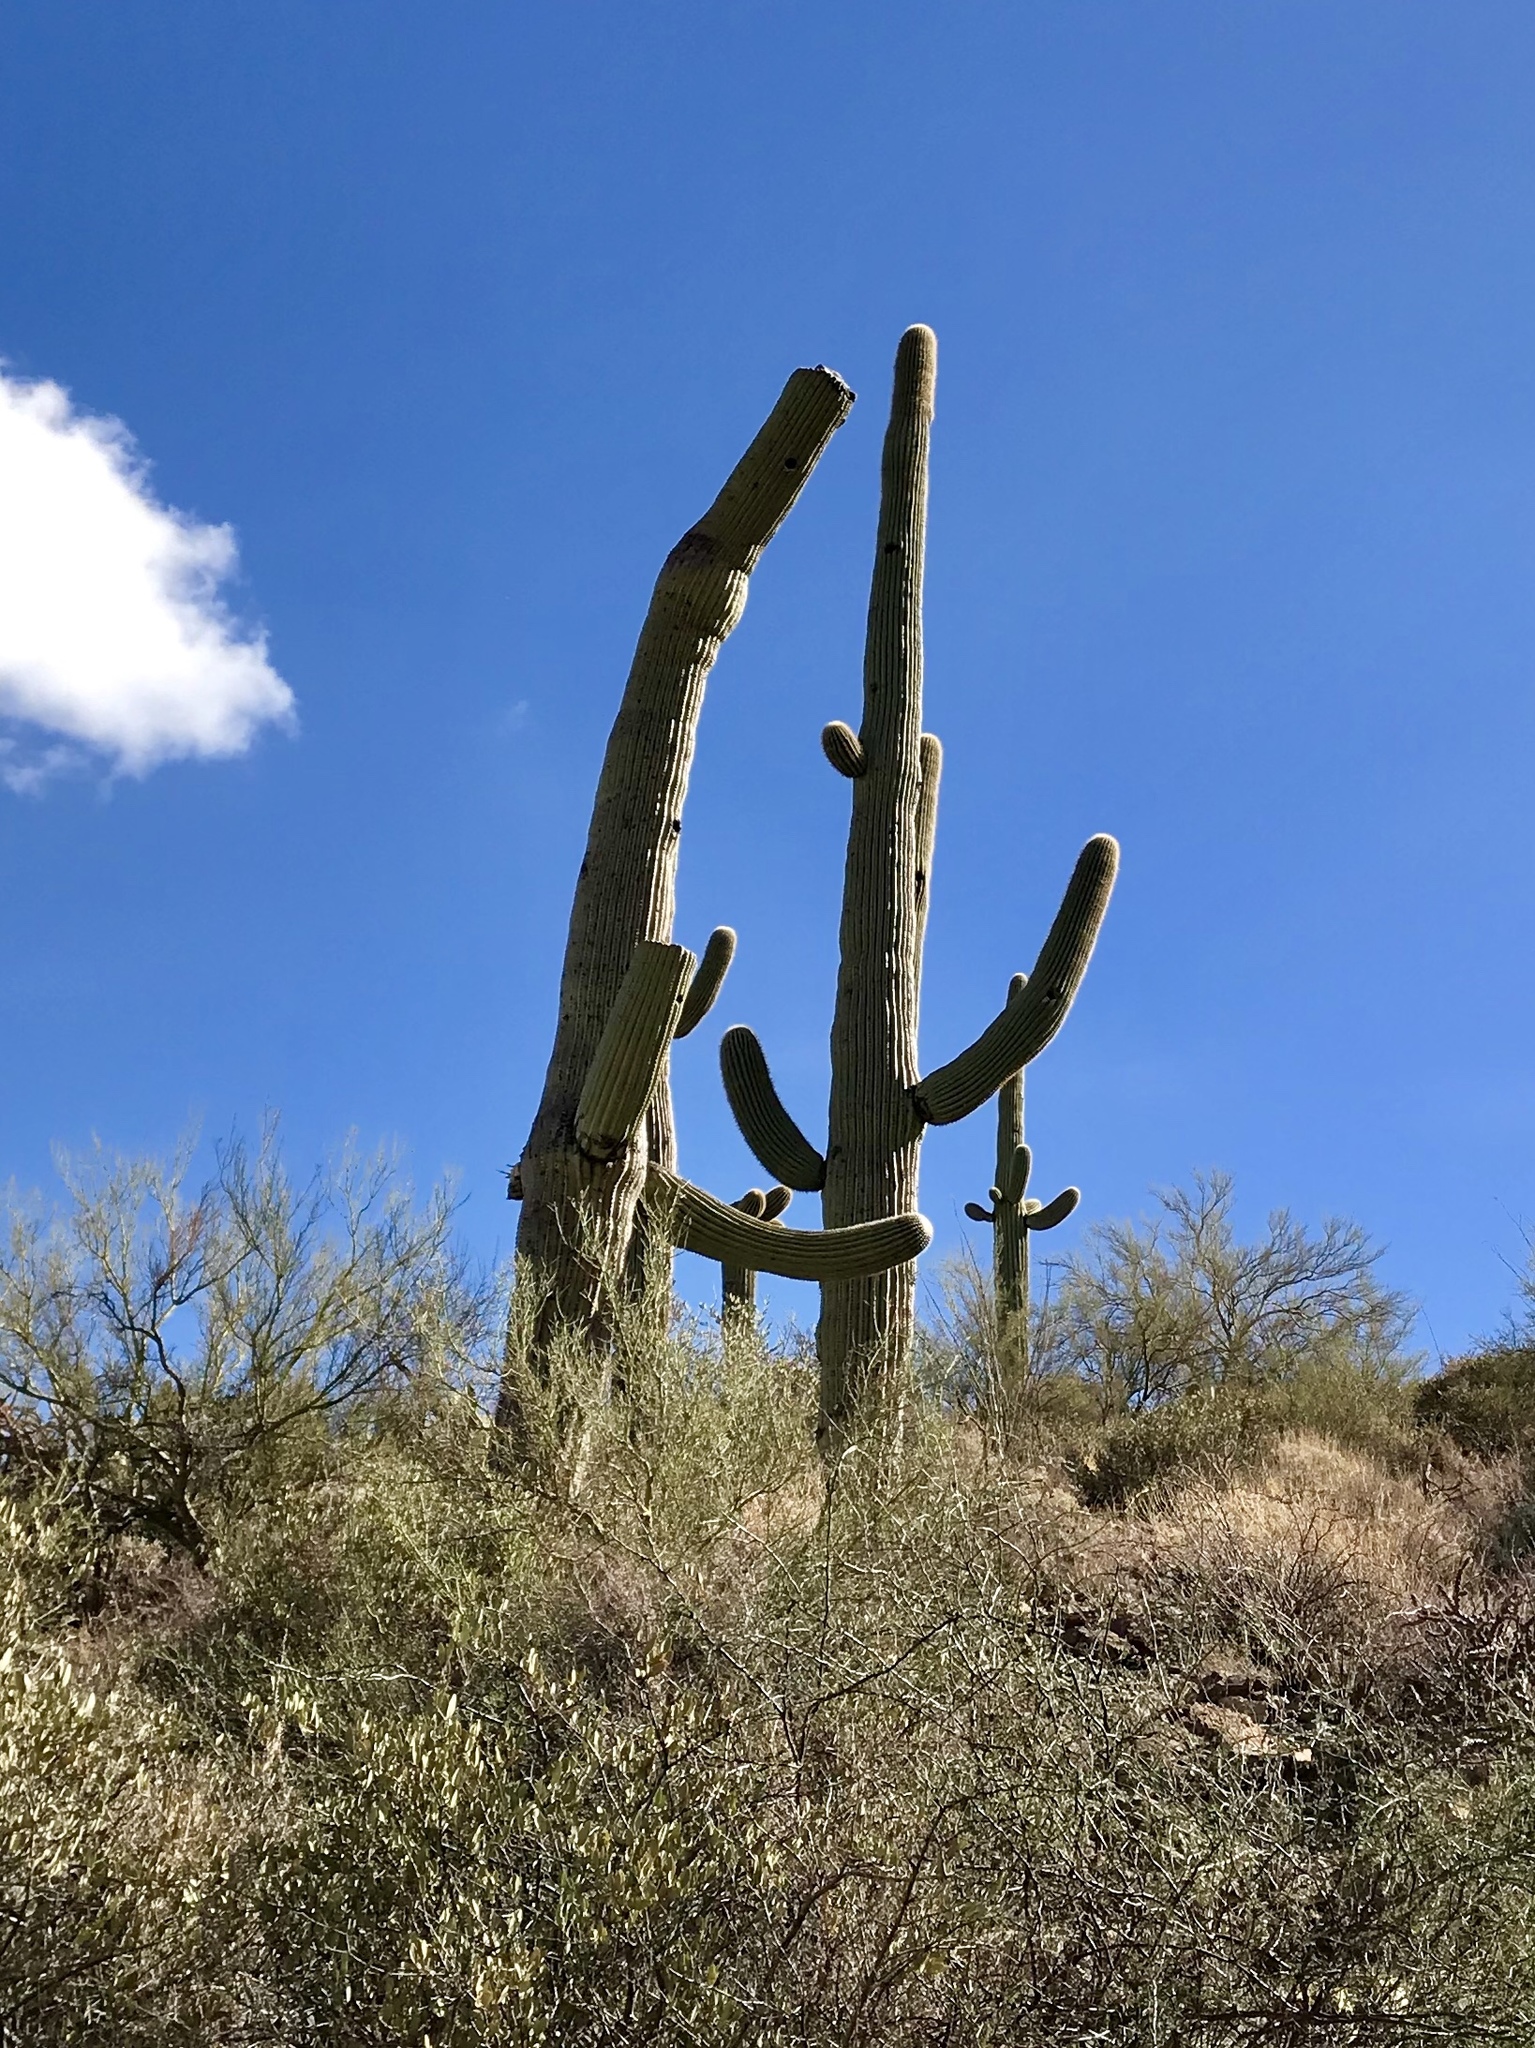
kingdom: Plantae
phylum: Tracheophyta
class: Magnoliopsida
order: Caryophyllales
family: Cactaceae
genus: Carnegiea
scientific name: Carnegiea gigantea
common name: Saguaro
